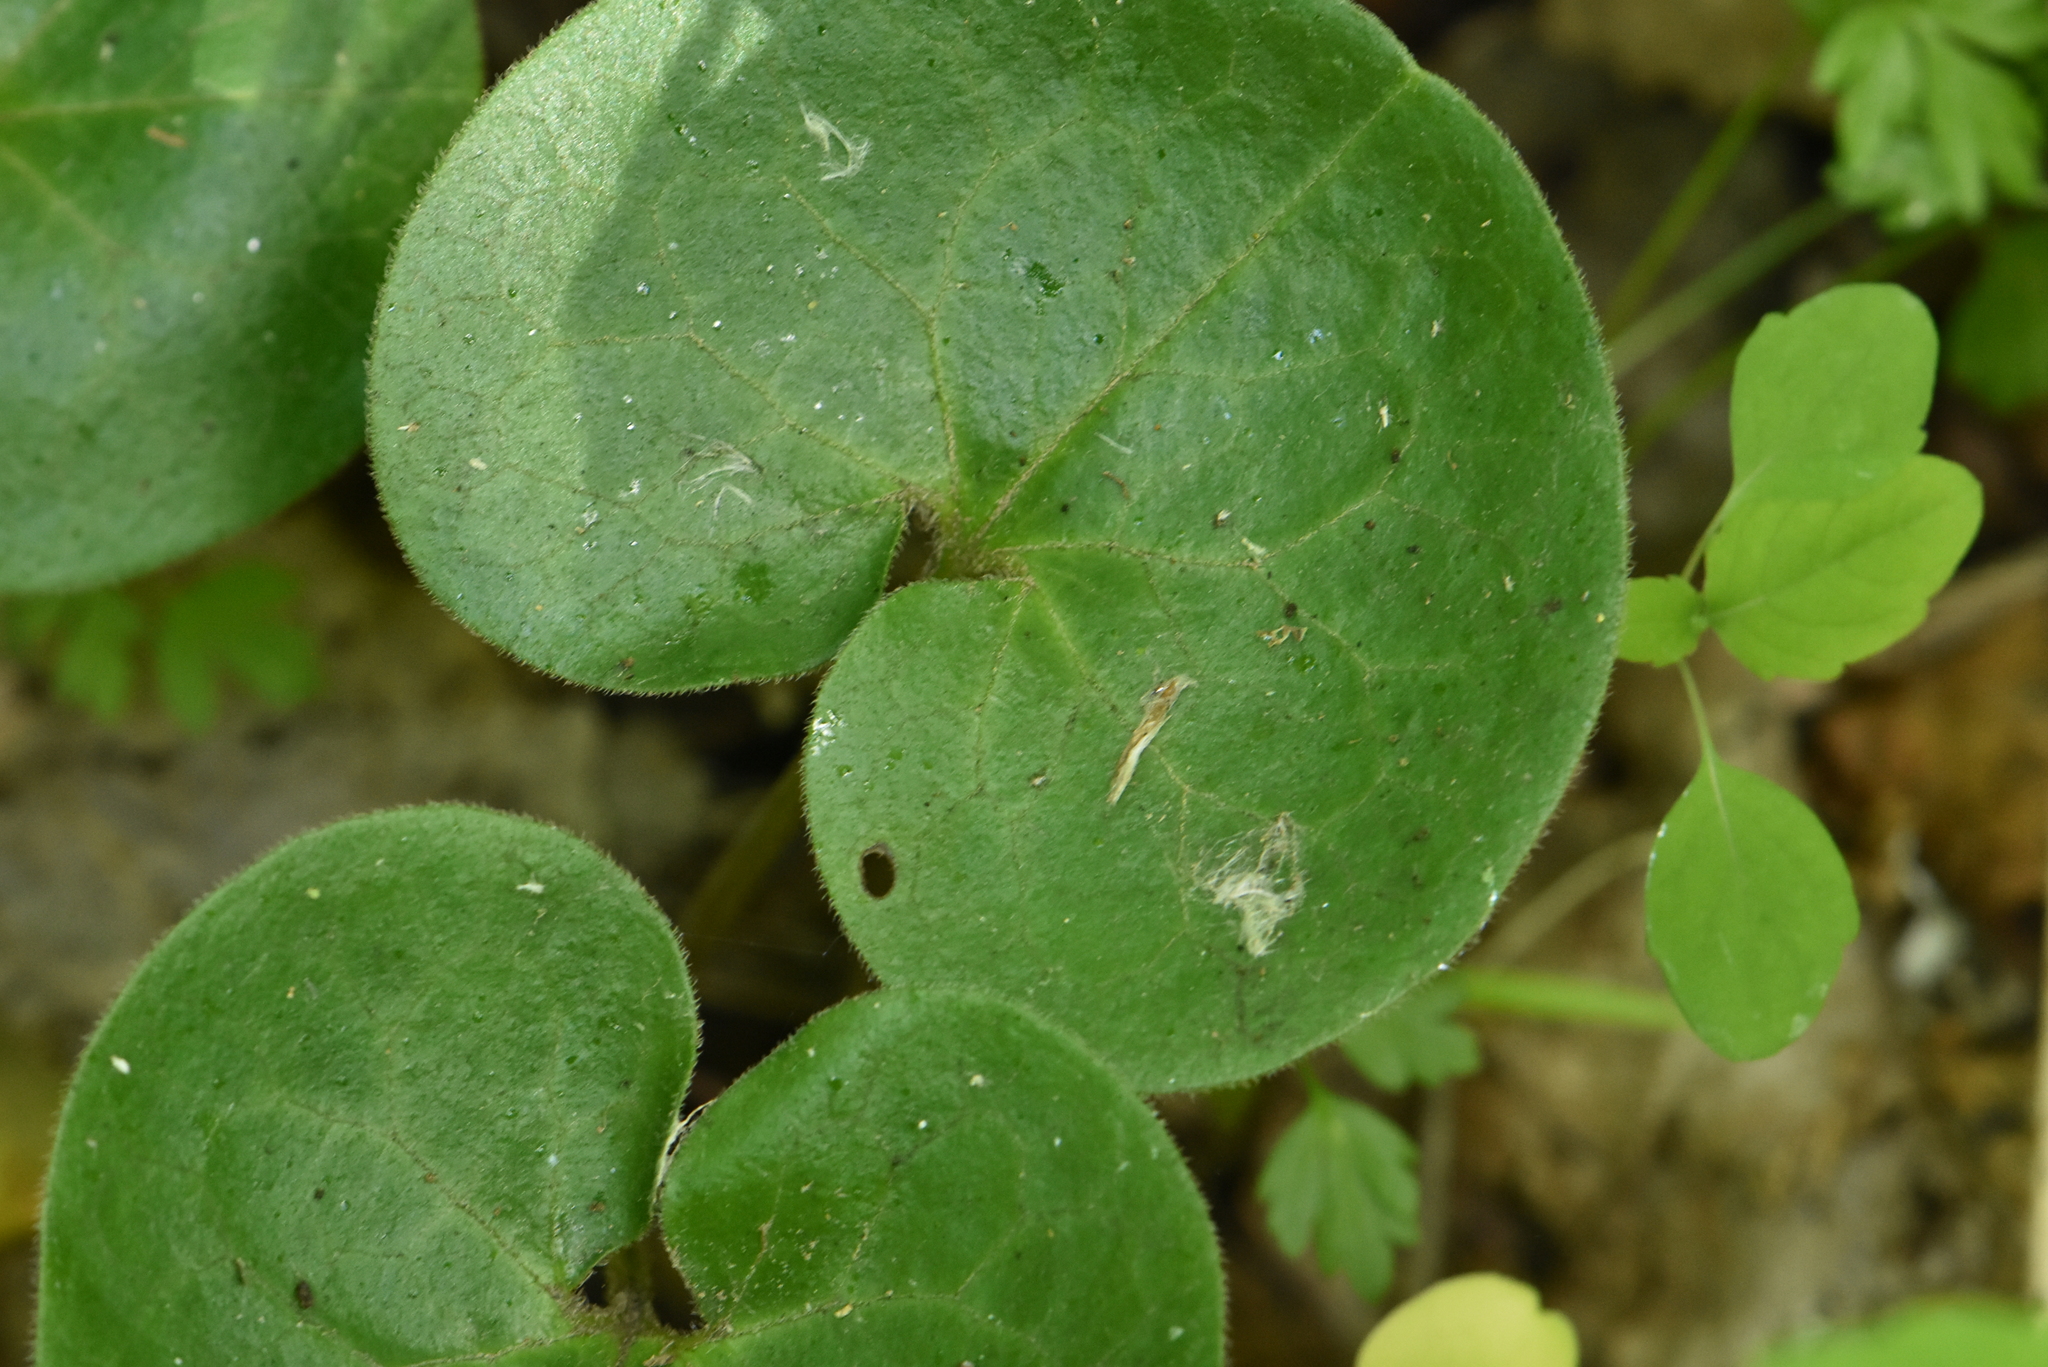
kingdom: Plantae
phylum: Tracheophyta
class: Magnoliopsida
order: Piperales
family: Aristolochiaceae
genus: Asarum
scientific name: Asarum europaeum
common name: Asarabacca
